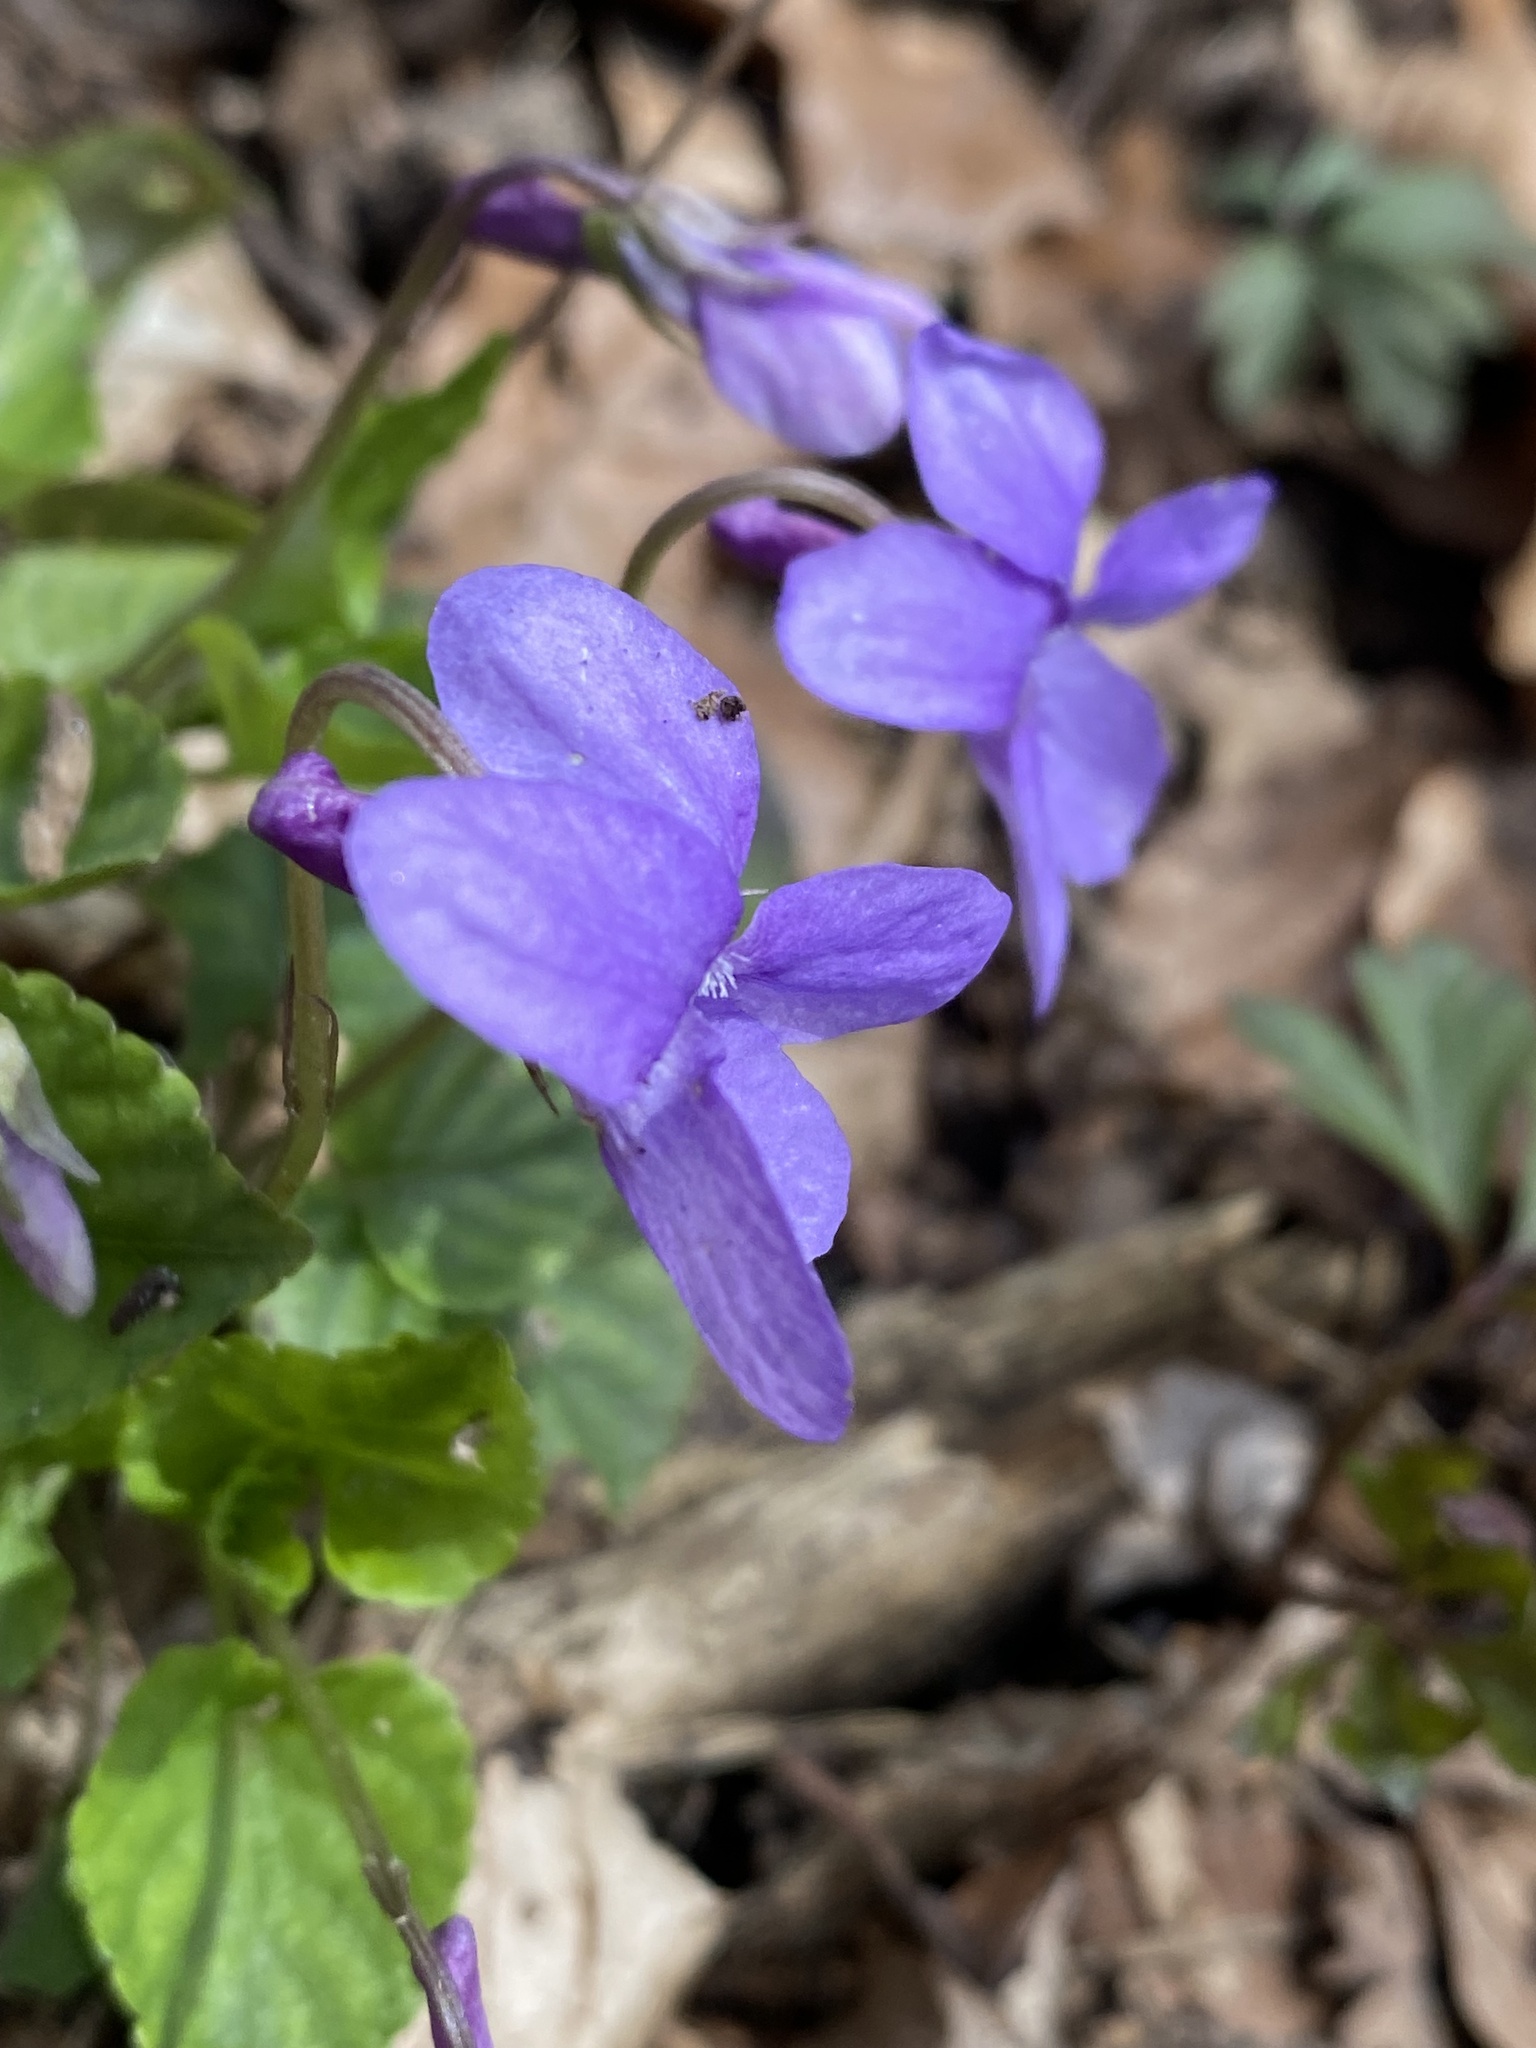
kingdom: Plantae
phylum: Tracheophyta
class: Magnoliopsida
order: Malpighiales
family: Violaceae
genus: Viola
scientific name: Viola reichenbachiana
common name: Early dog-violet
